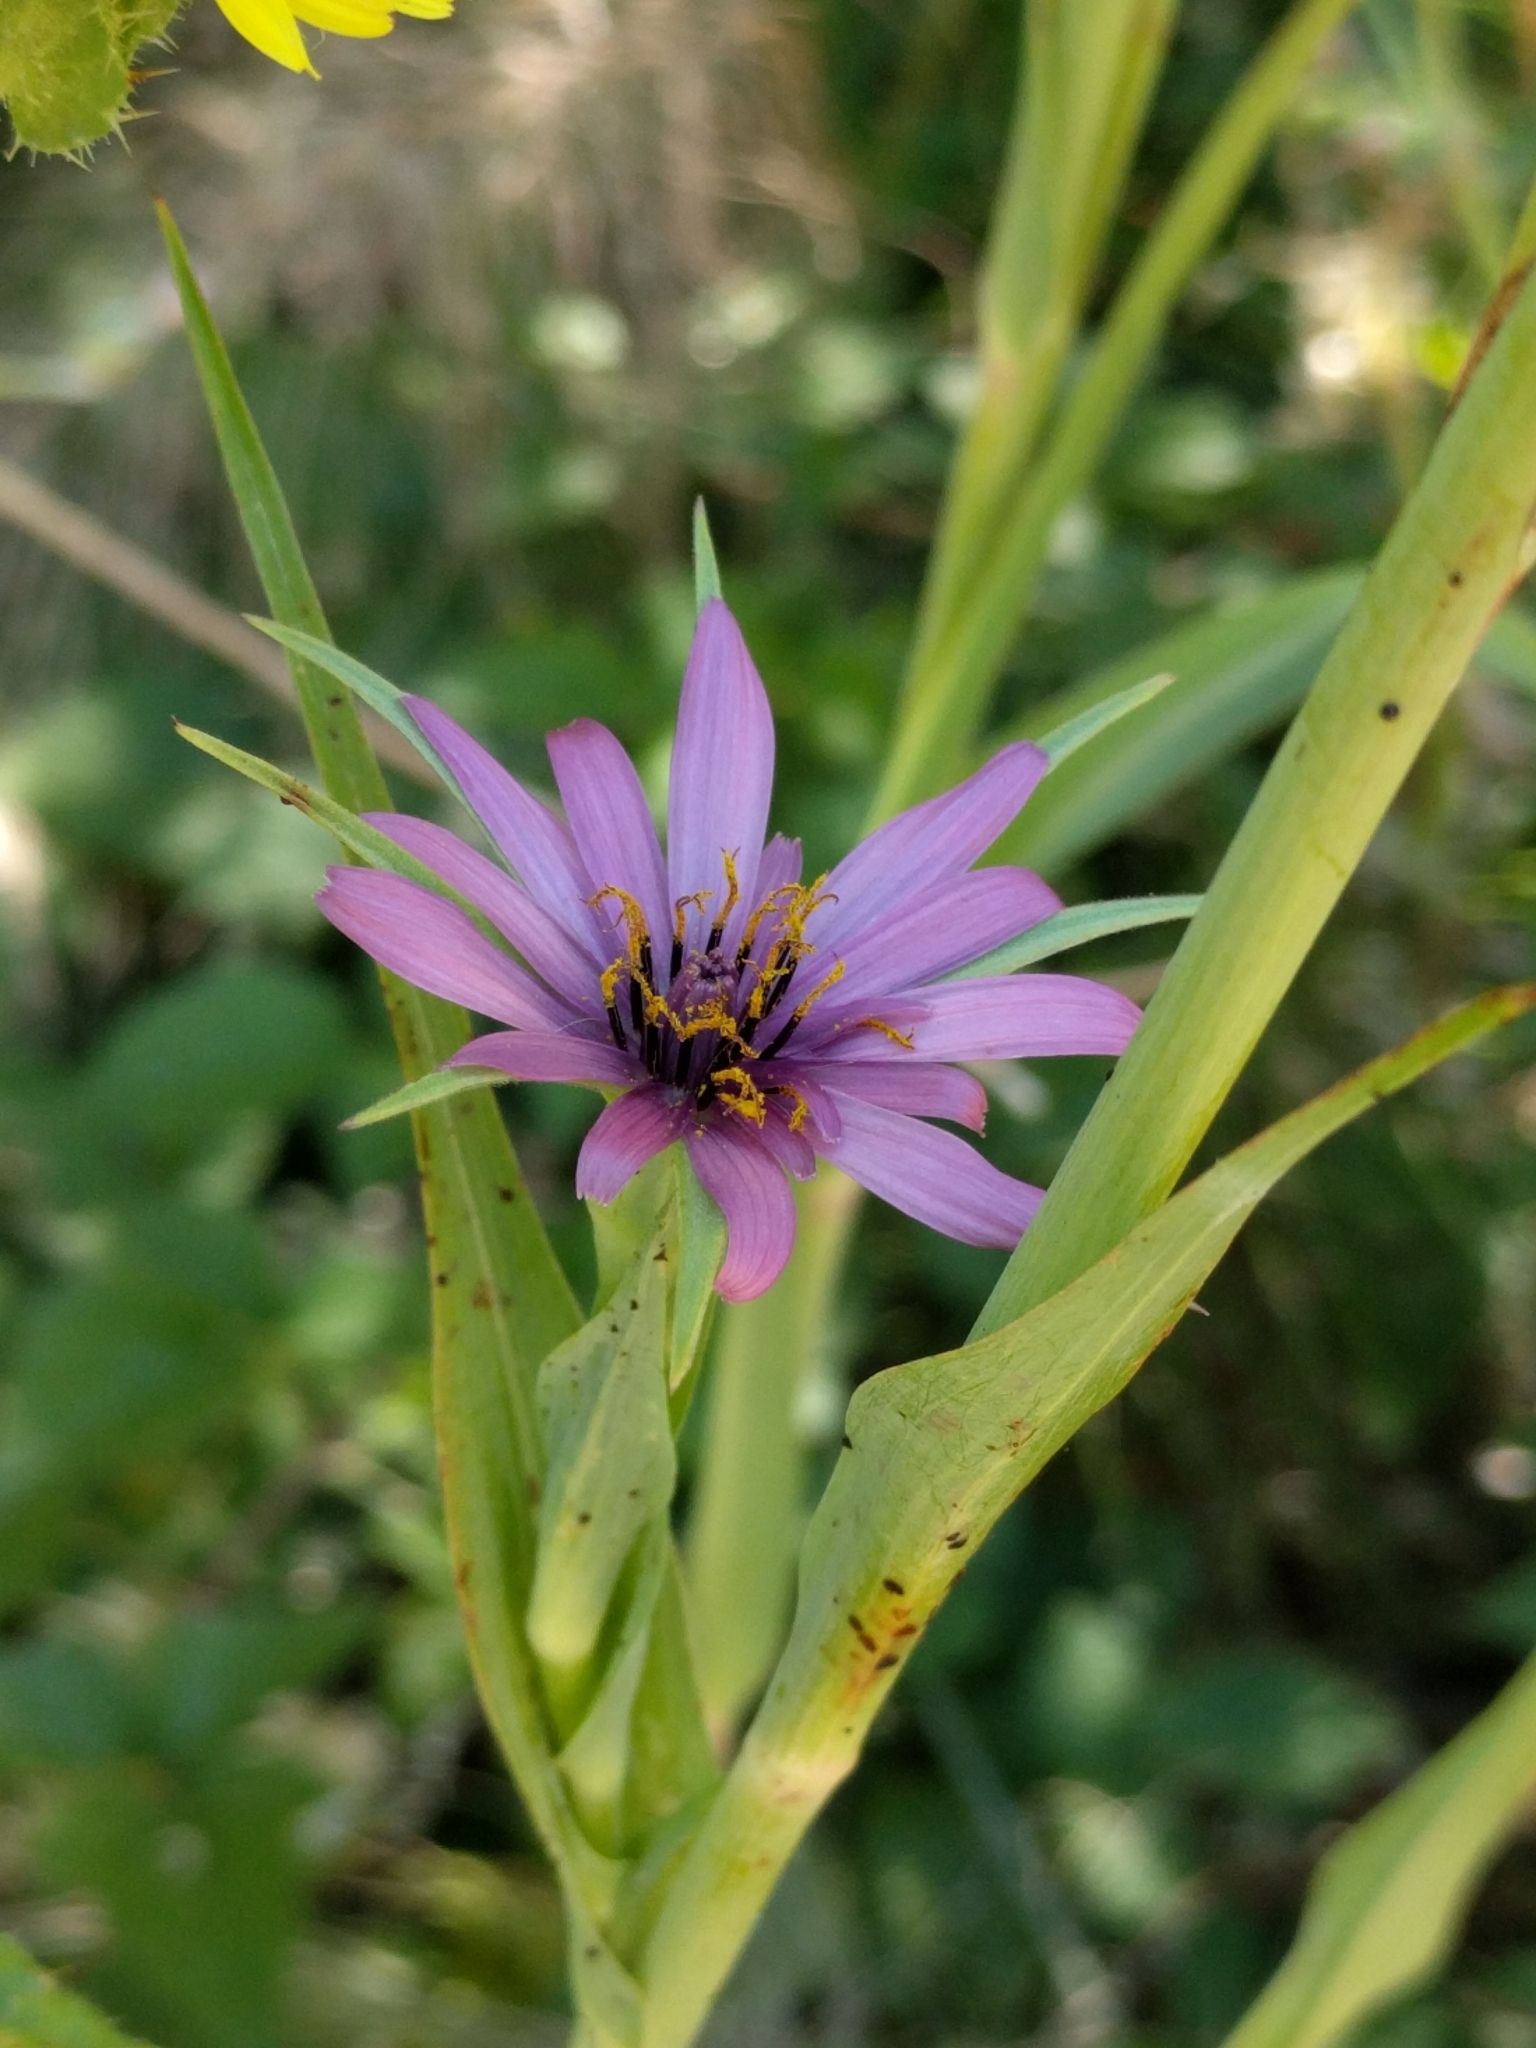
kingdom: Plantae
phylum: Tracheophyta
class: Magnoliopsida
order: Asterales
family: Asteraceae
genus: Tragopogon
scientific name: Tragopogon porrifolius
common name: Salsify
